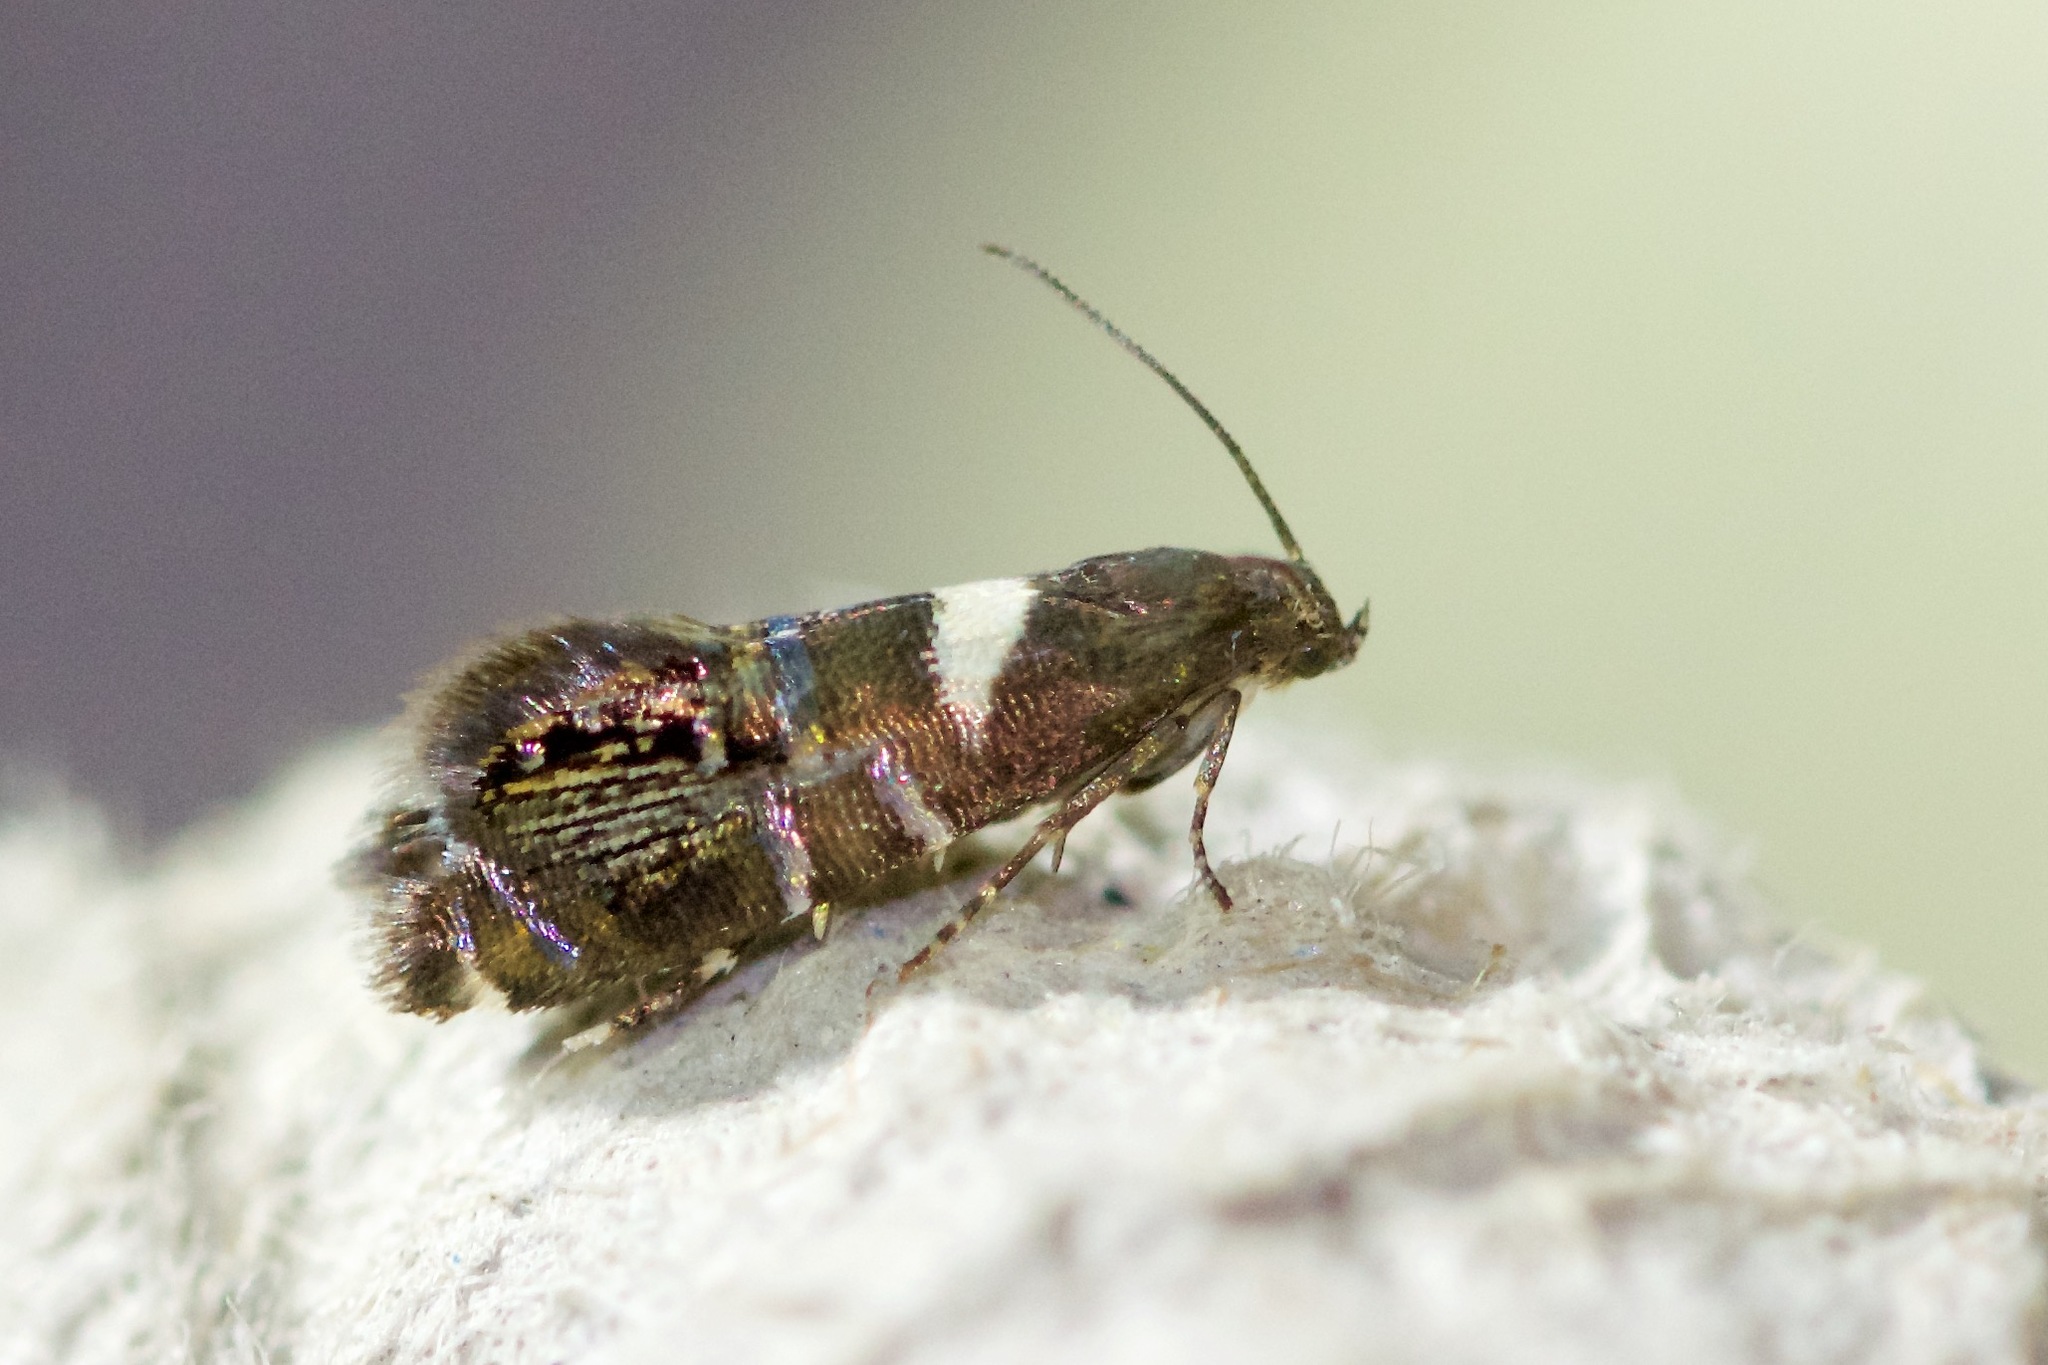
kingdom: Animalia
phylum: Arthropoda
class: Insecta
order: Lepidoptera
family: Glyphipterigidae
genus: Glyphipterix
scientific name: Glyphipterix circumscriptella
